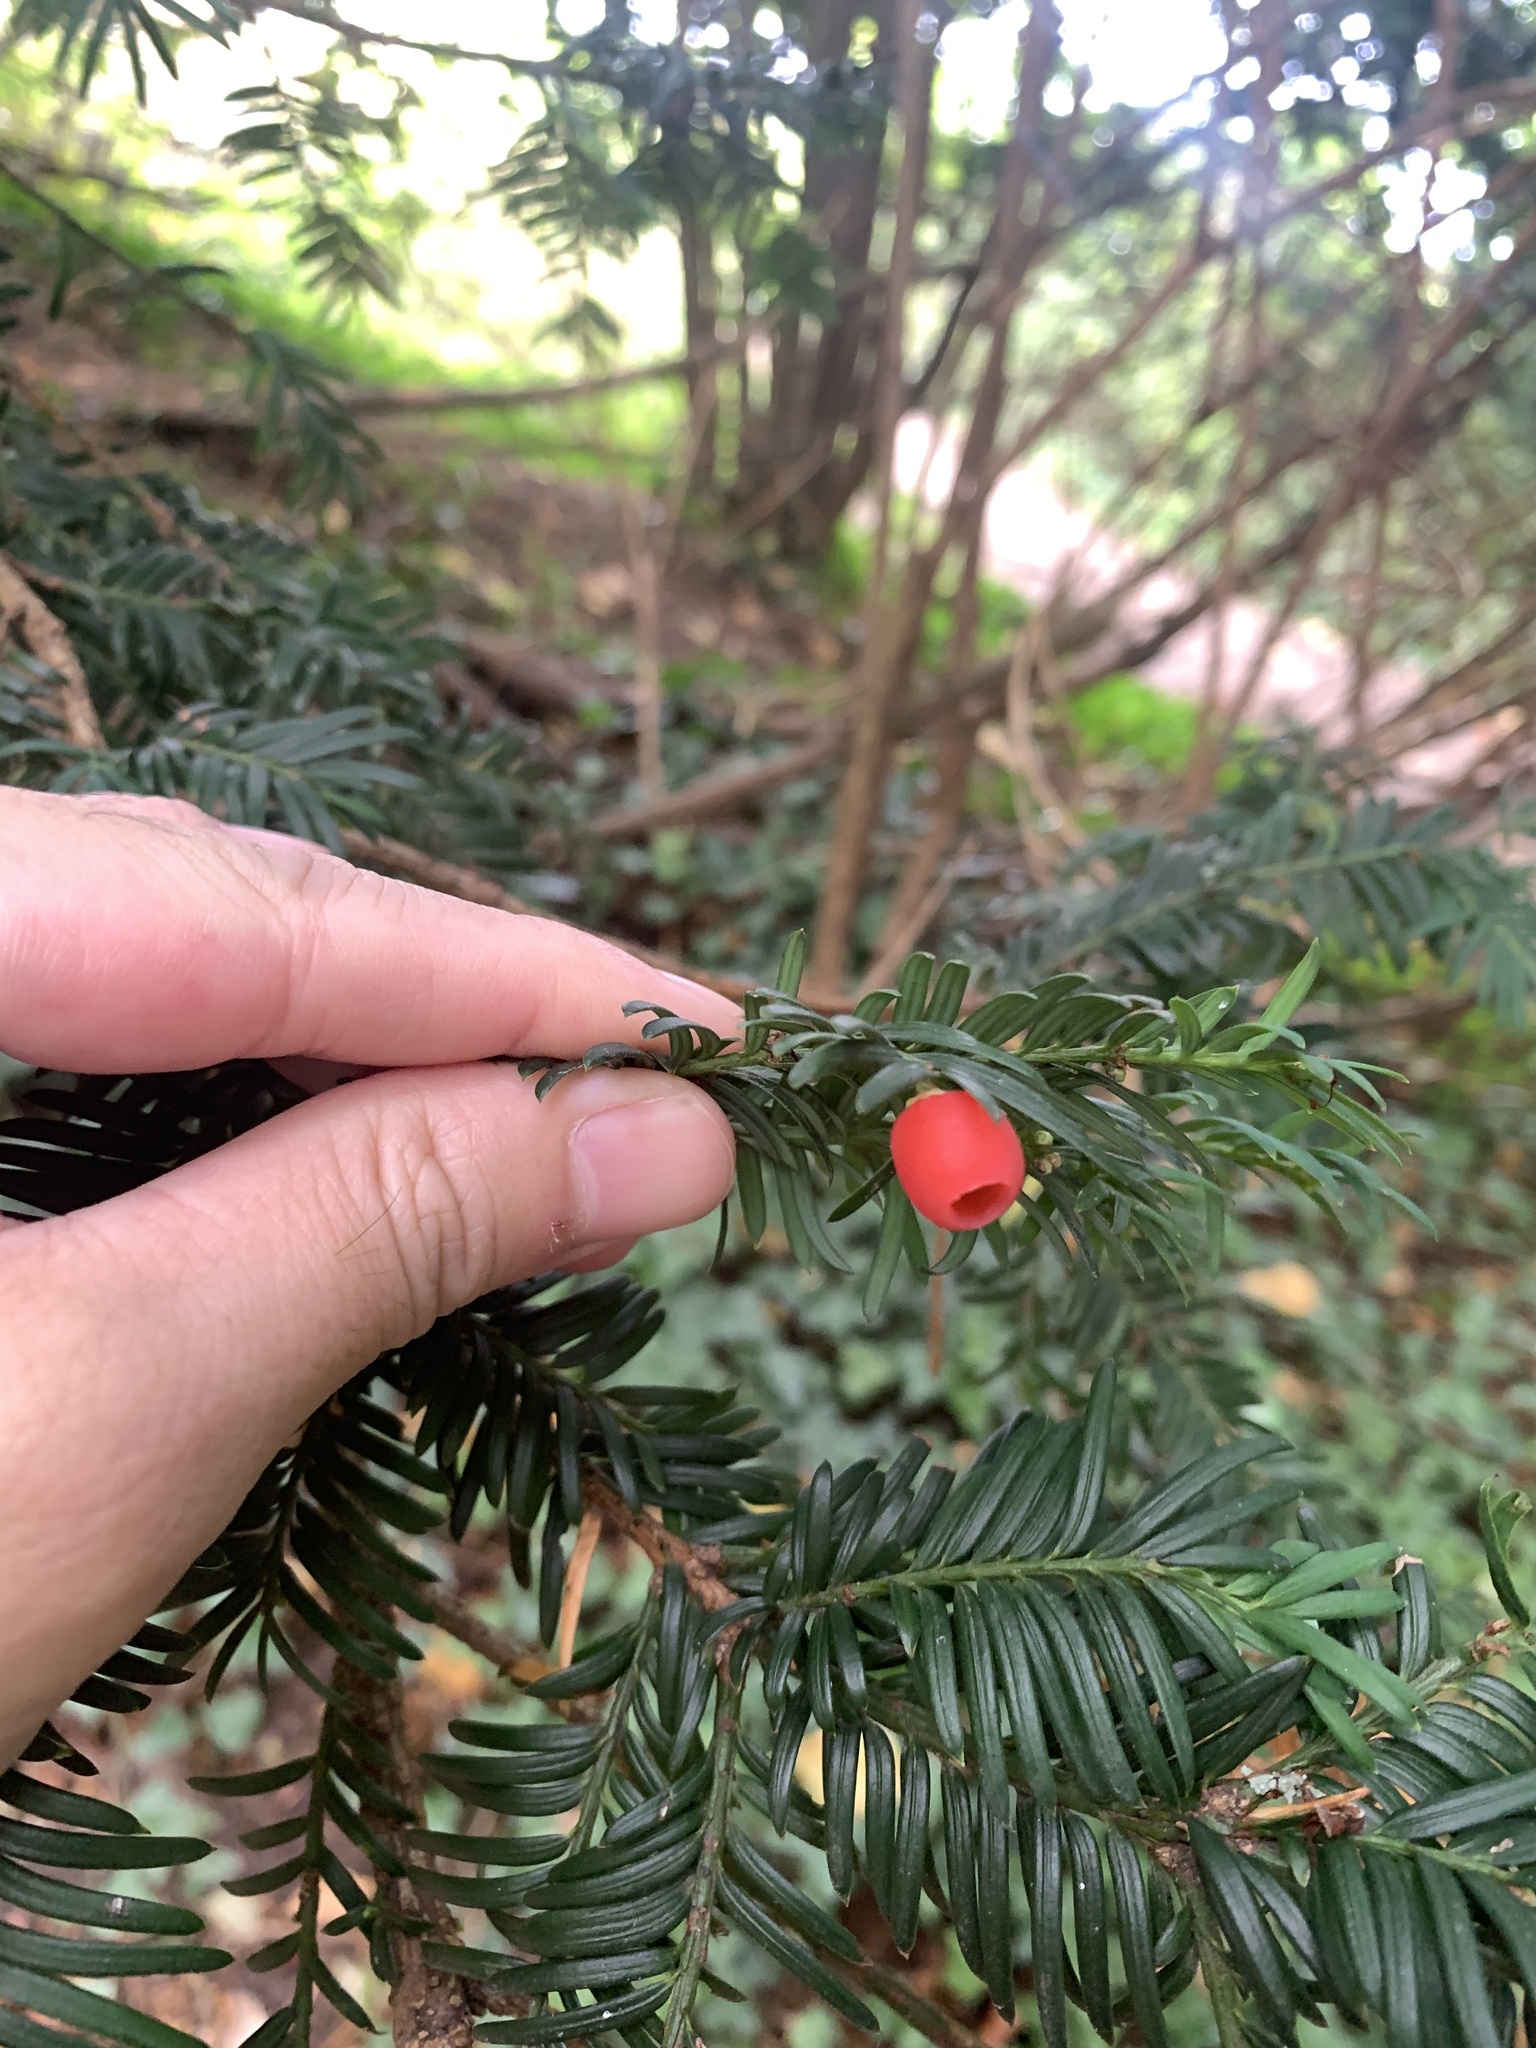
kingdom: Plantae
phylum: Tracheophyta
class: Pinopsida
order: Pinales
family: Taxaceae
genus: Taxus
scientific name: Taxus baccata
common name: Yew
